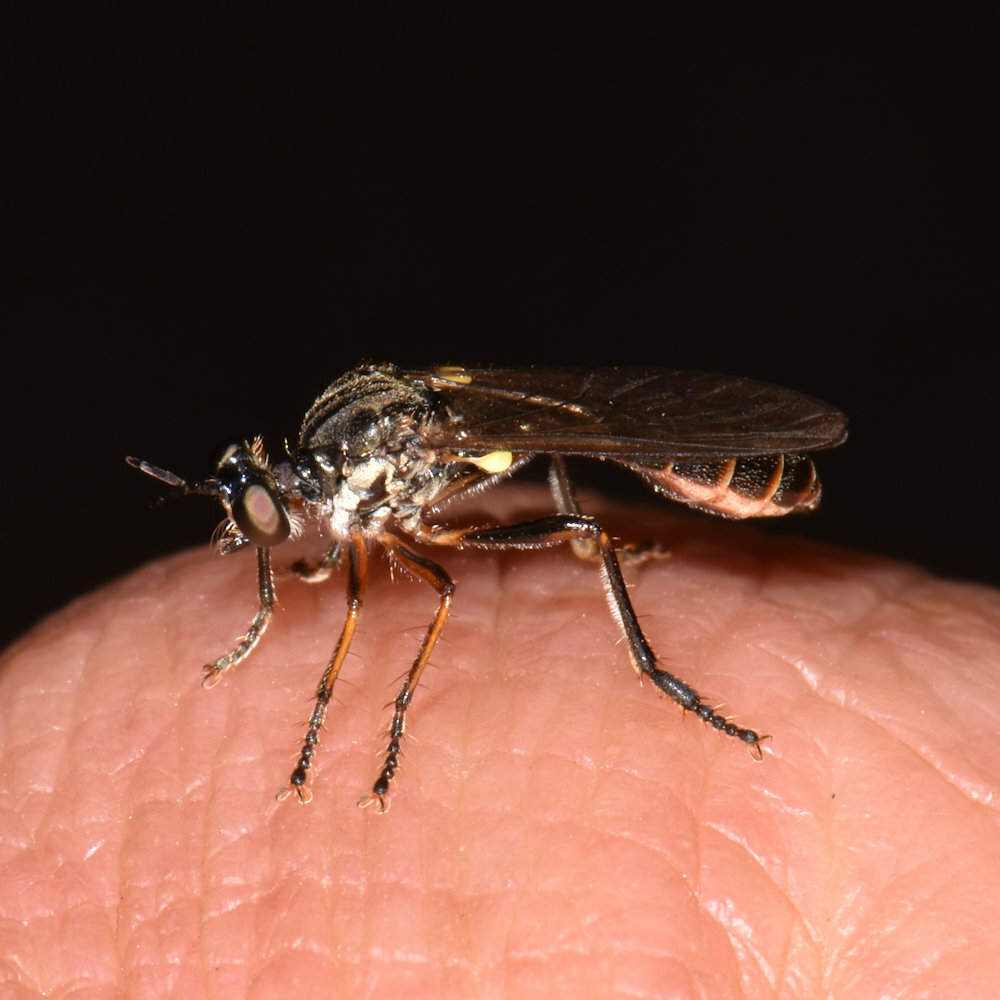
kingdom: Animalia
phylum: Arthropoda
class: Insecta
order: Diptera
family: Asilidae
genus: Dioctria
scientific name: Dioctria hyalipennis
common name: Stripe-legged robberfly
